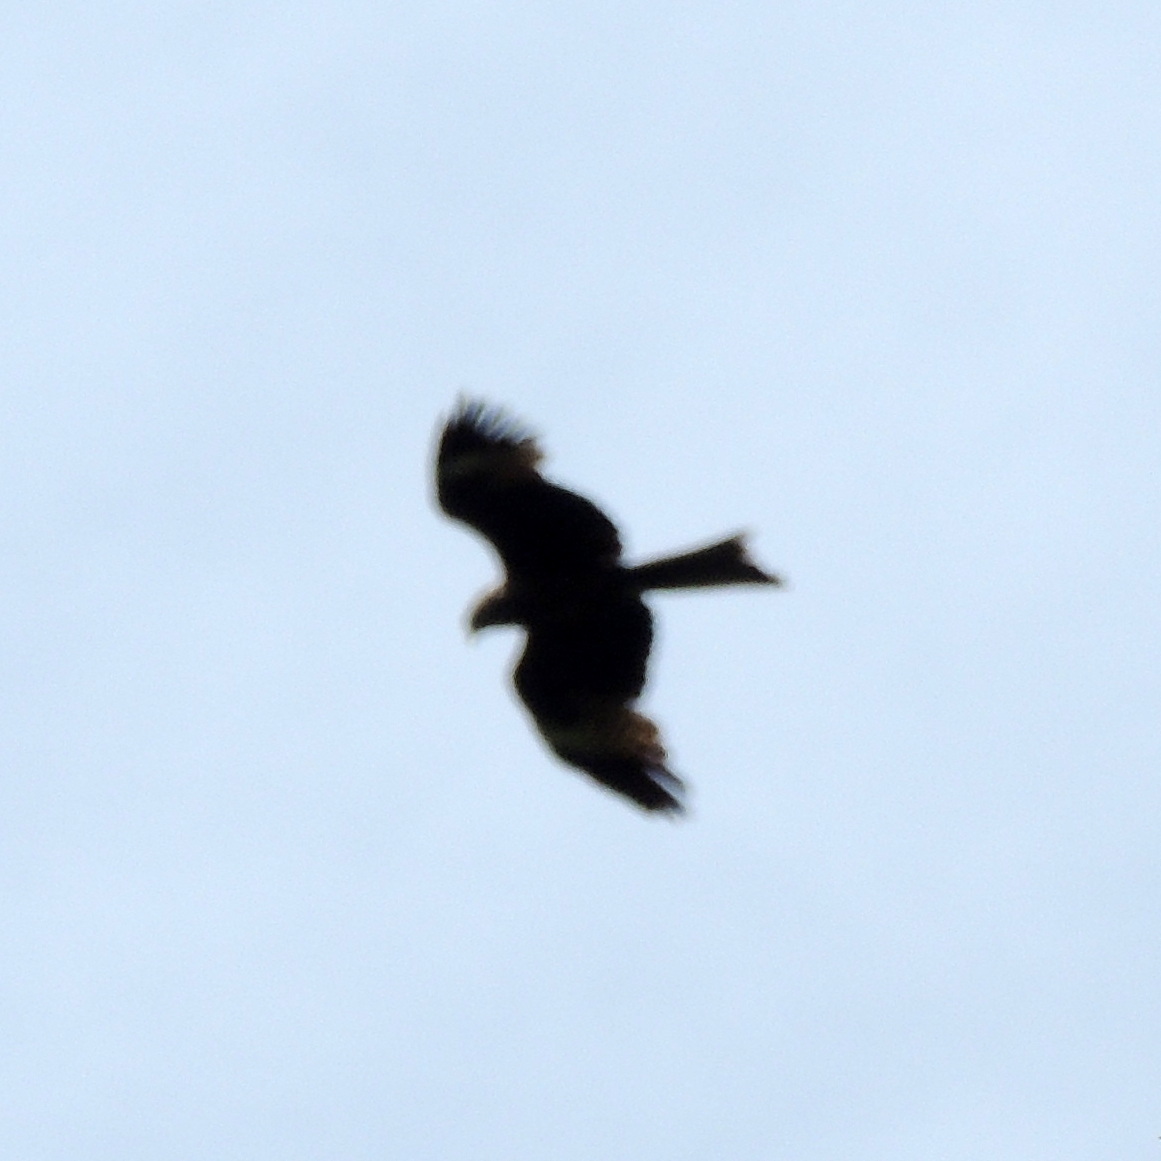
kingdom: Animalia
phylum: Chordata
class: Aves
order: Accipitriformes
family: Accipitridae
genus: Milvus
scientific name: Milvus migrans
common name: Black kite
